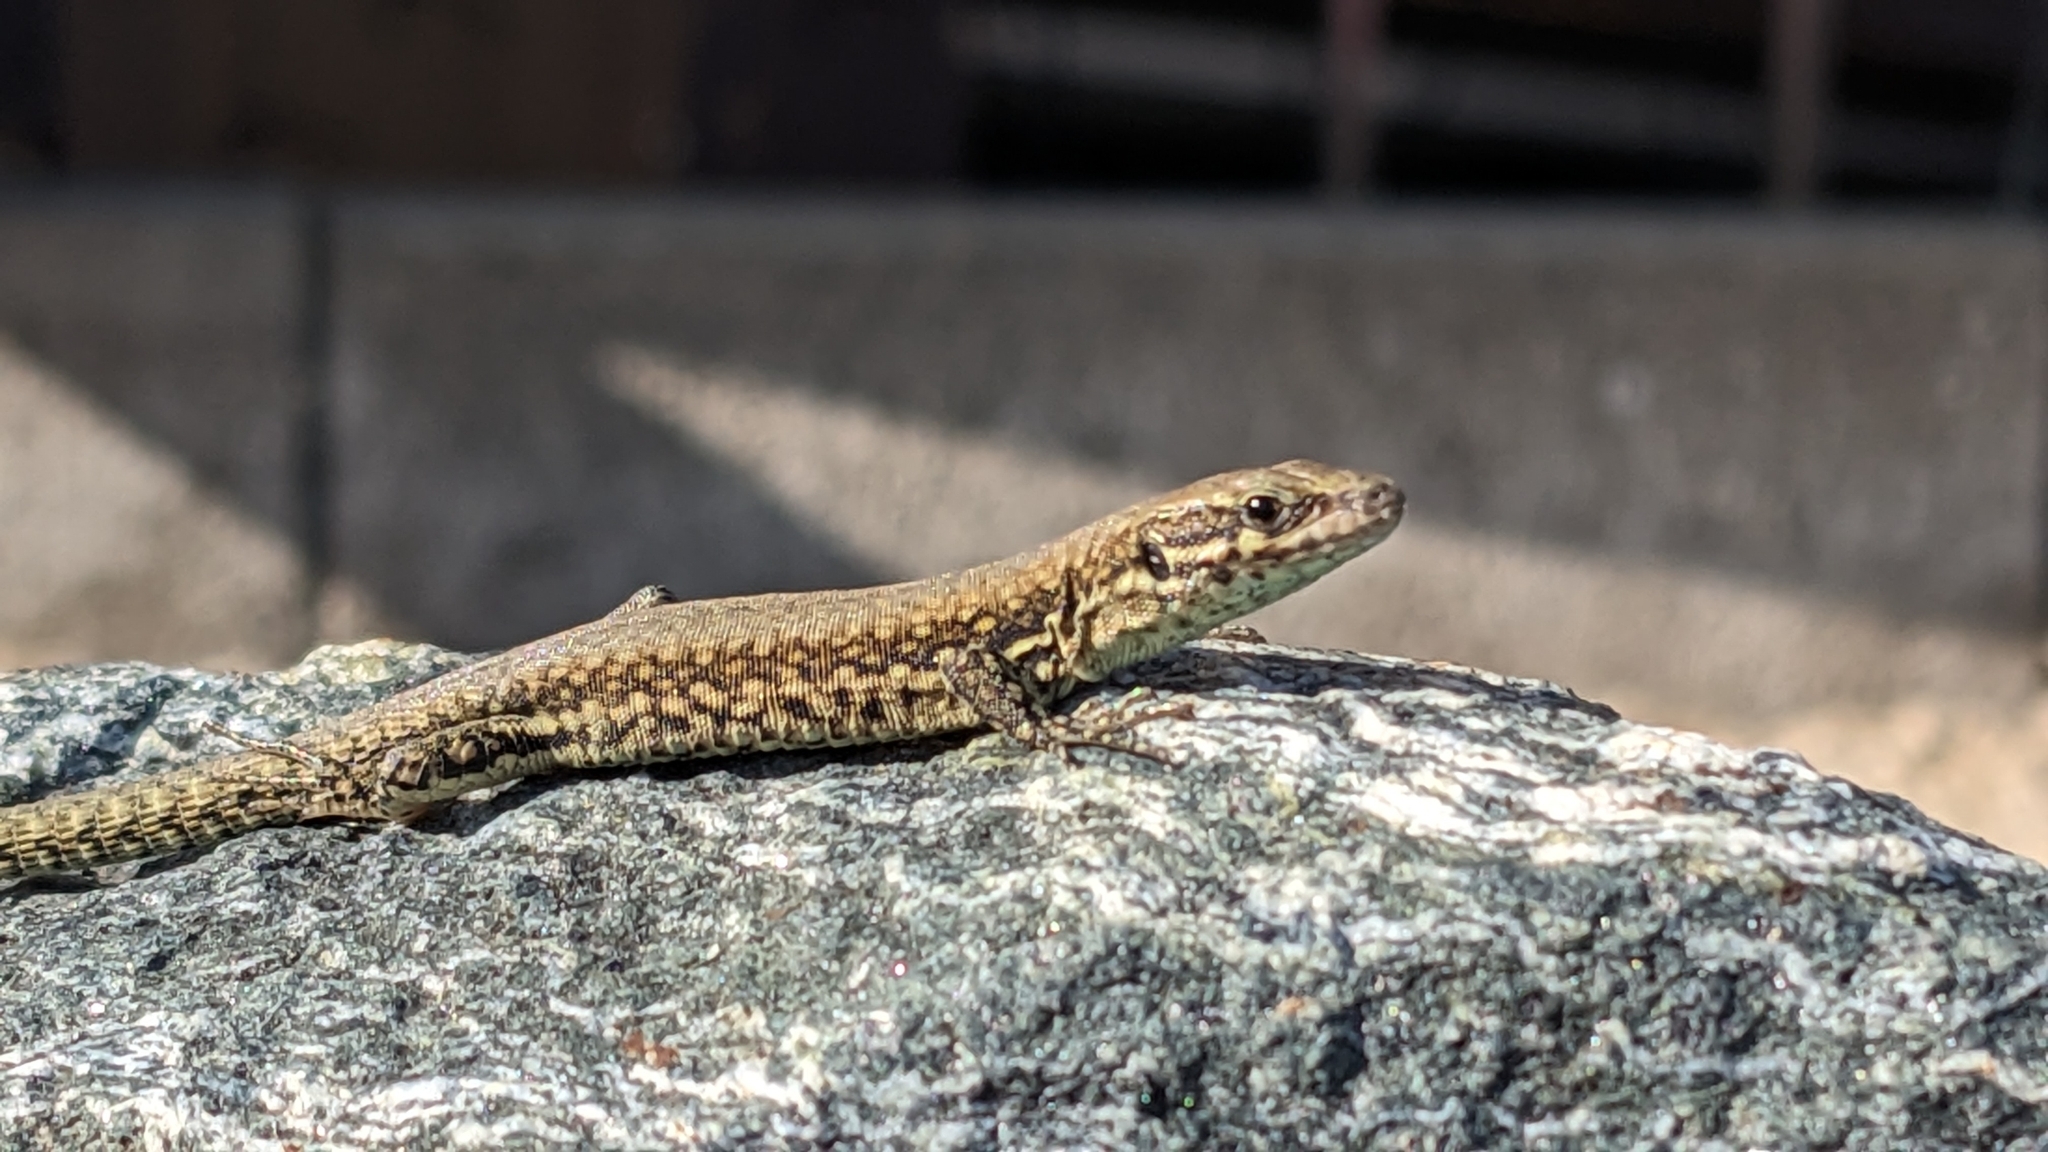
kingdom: Animalia
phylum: Chordata
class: Squamata
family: Lacertidae
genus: Podarcis
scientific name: Podarcis muralis
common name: Common wall lizard
